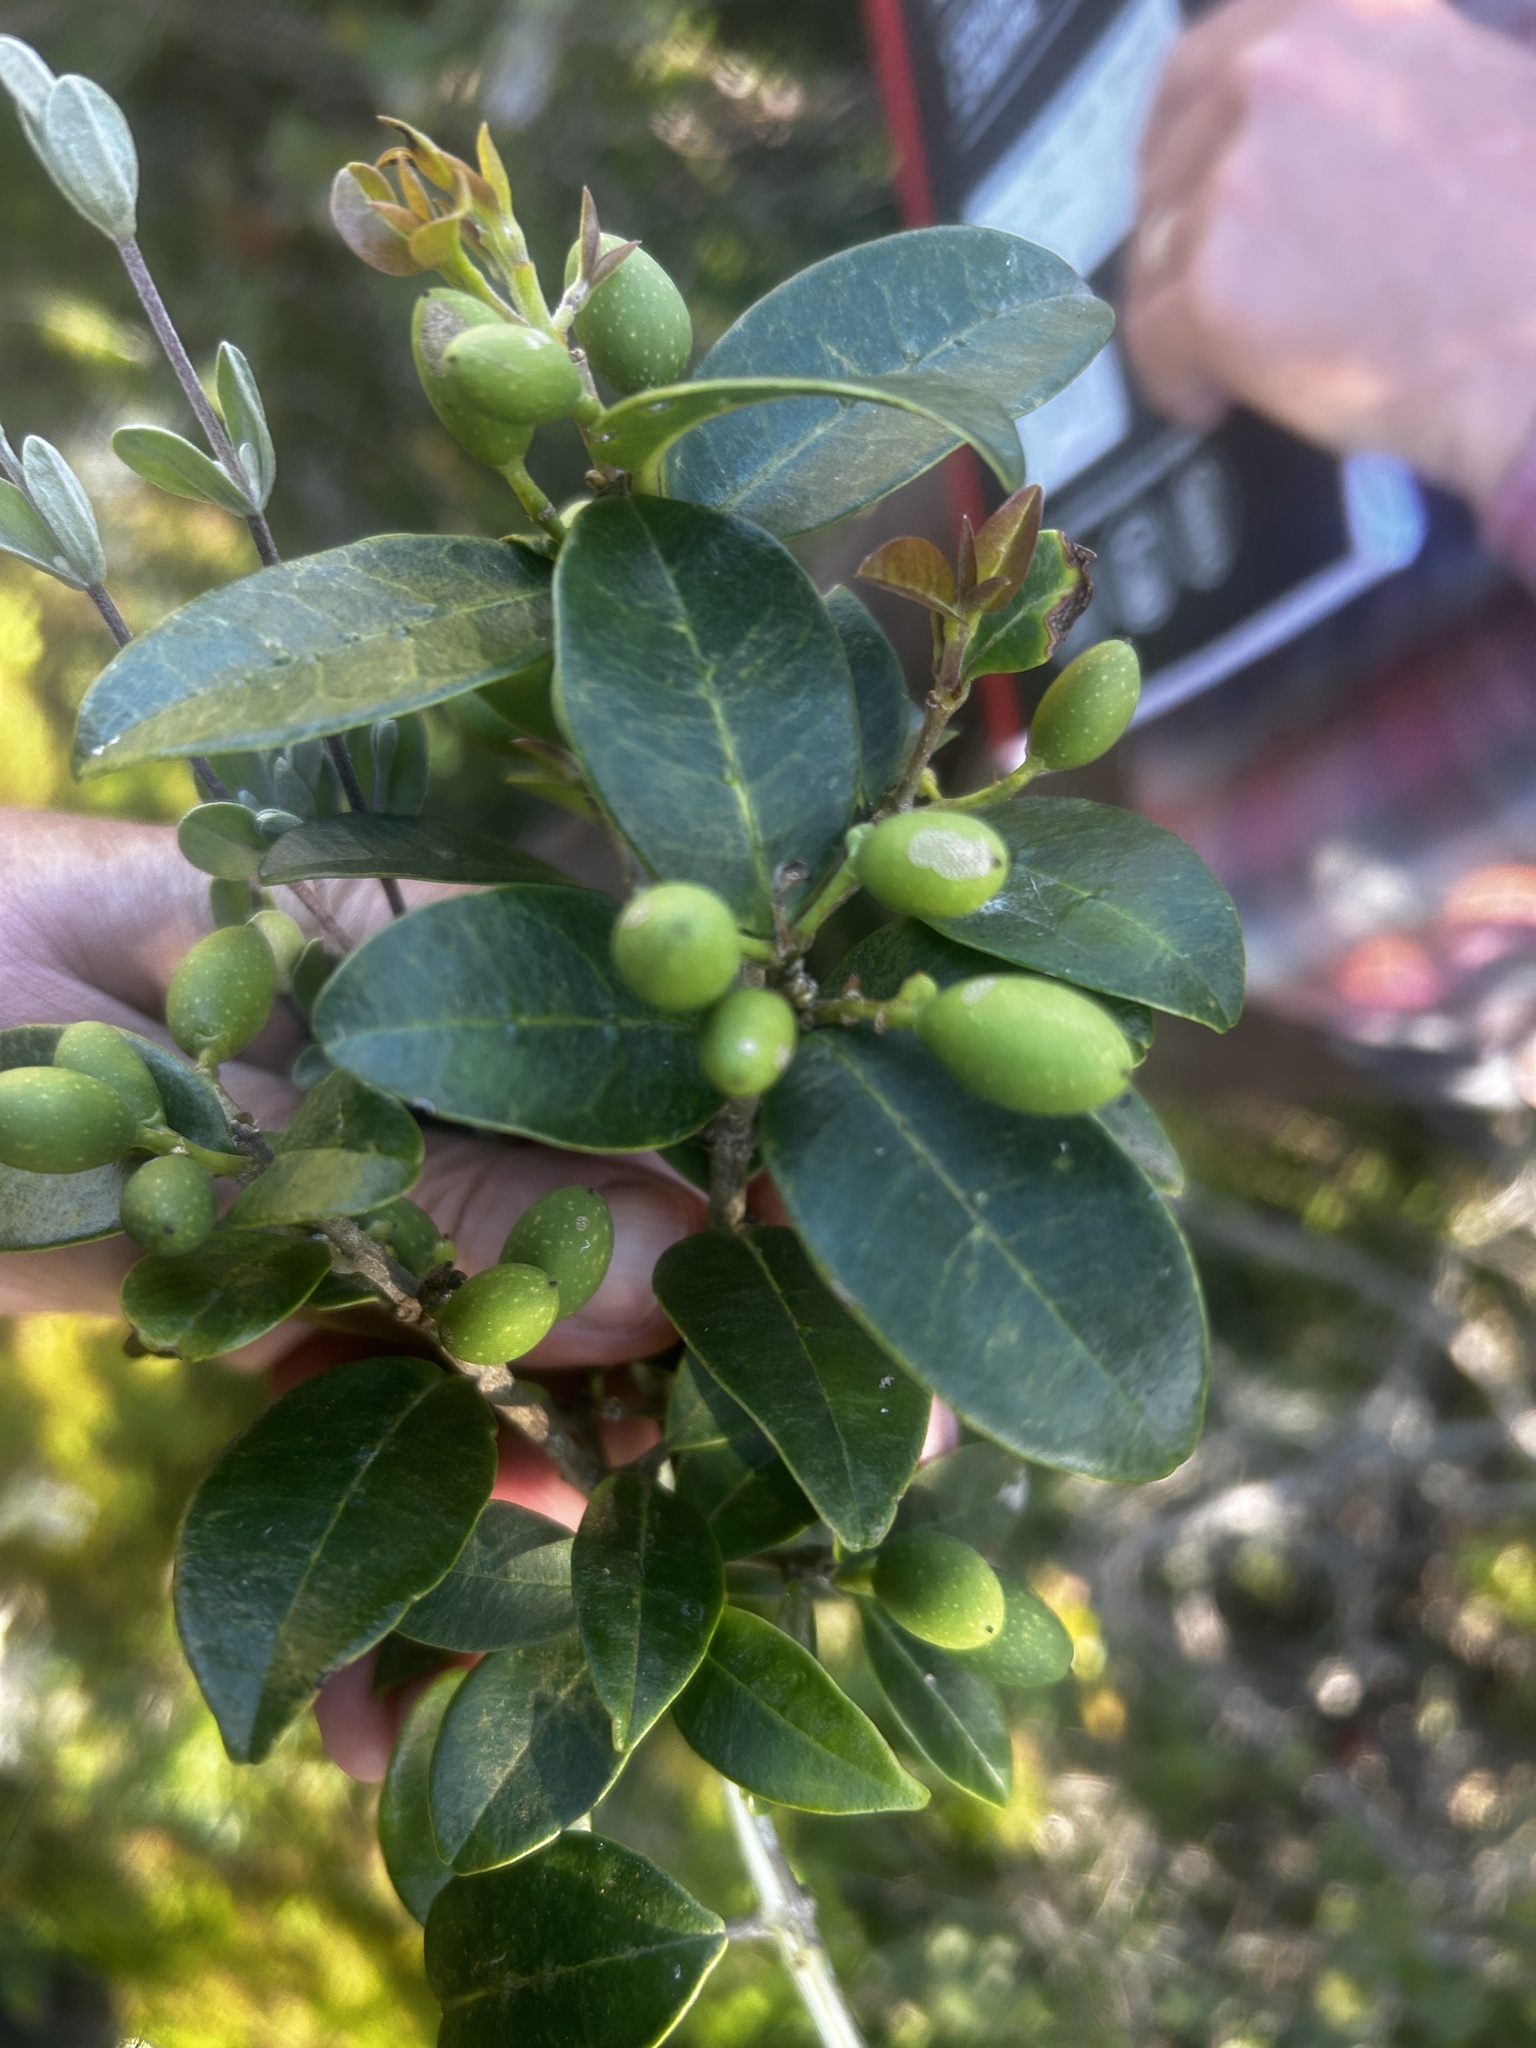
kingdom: Plantae
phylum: Tracheophyta
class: Magnoliopsida
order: Lamiales
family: Oleaceae
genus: Noronhia
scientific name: Noronhia foveolata
